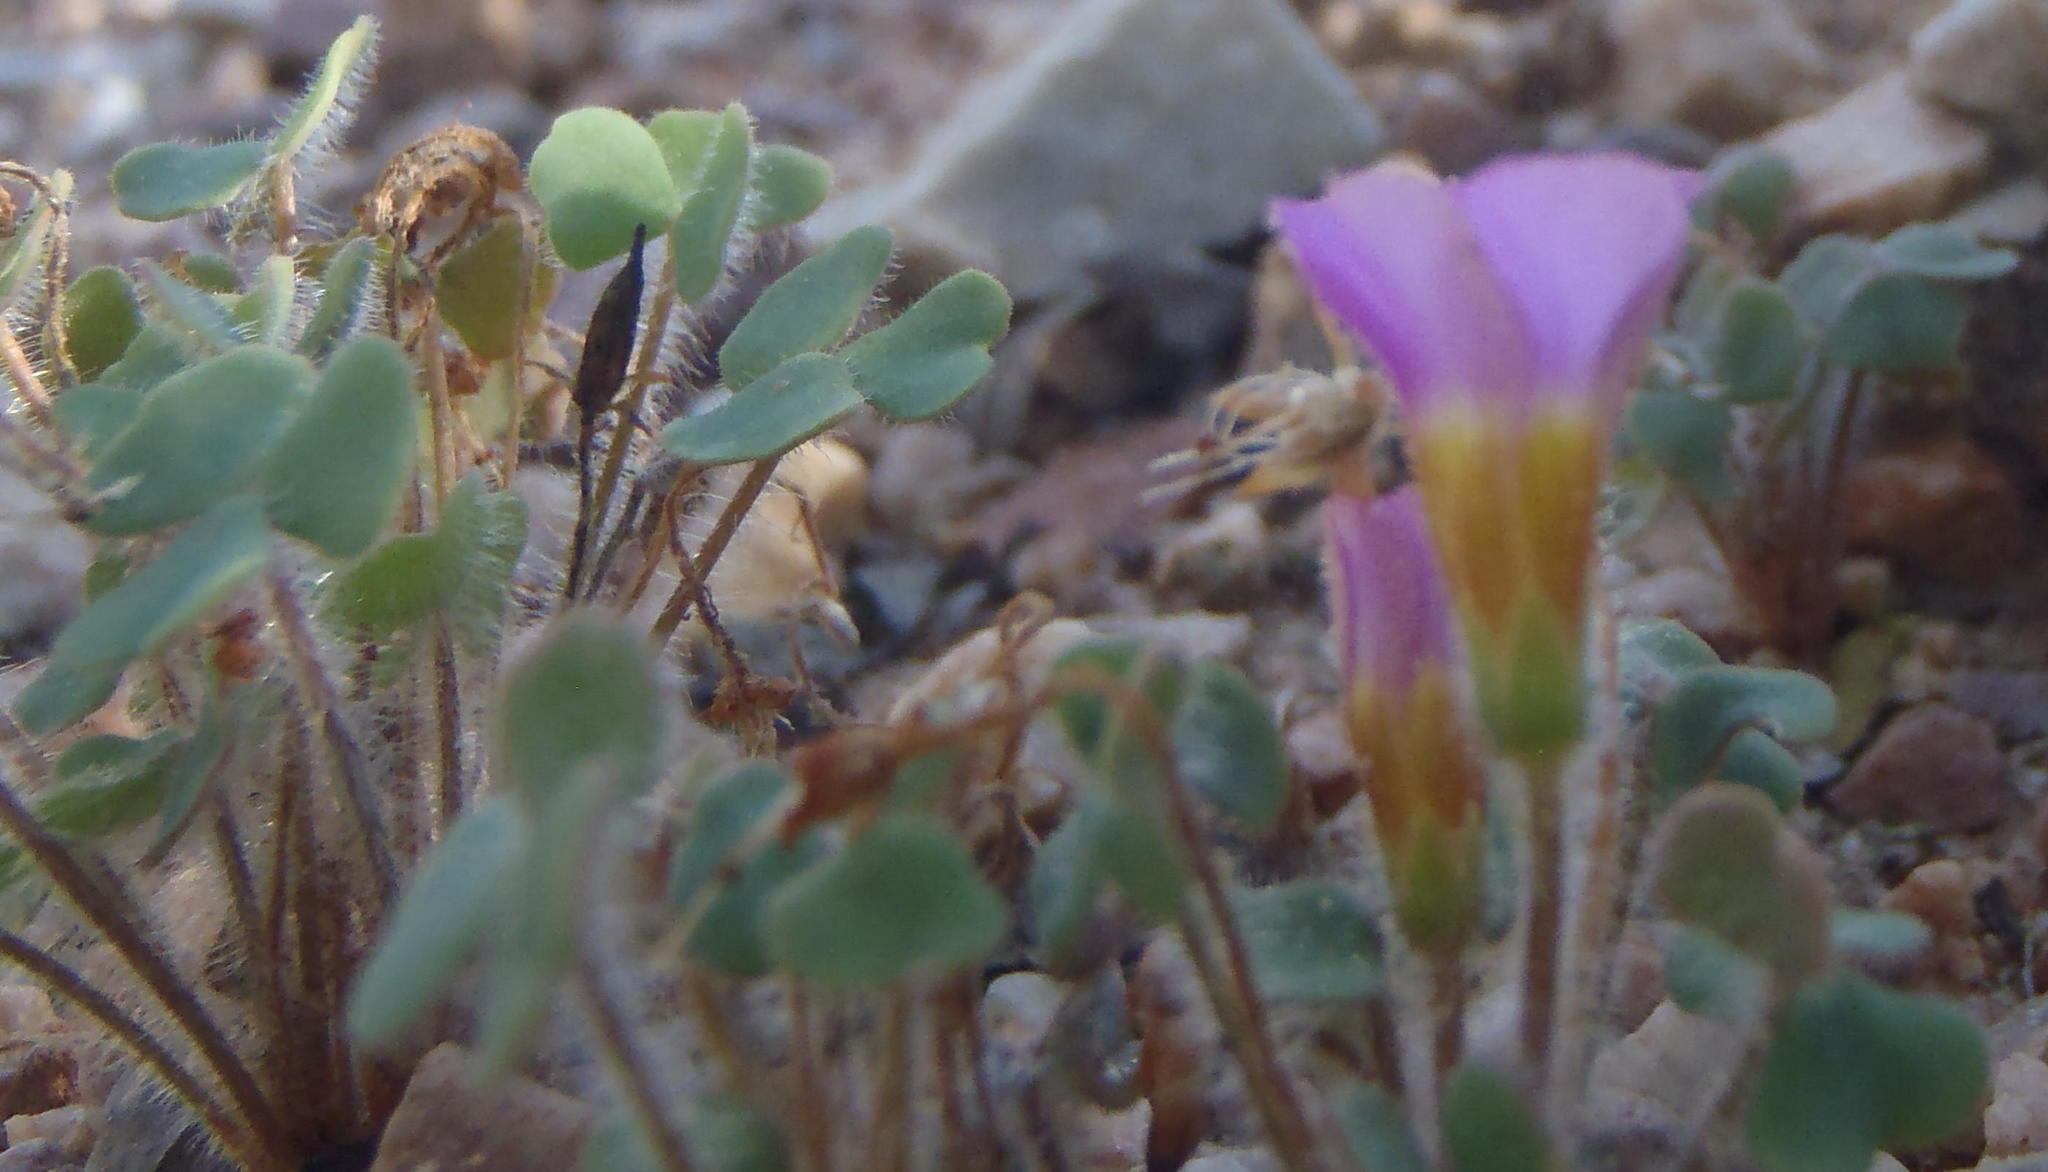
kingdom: Plantae
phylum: Tracheophyta
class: Magnoliopsida
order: Oxalidales
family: Oxalidaceae
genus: Oxalis
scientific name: Oxalis punctata
